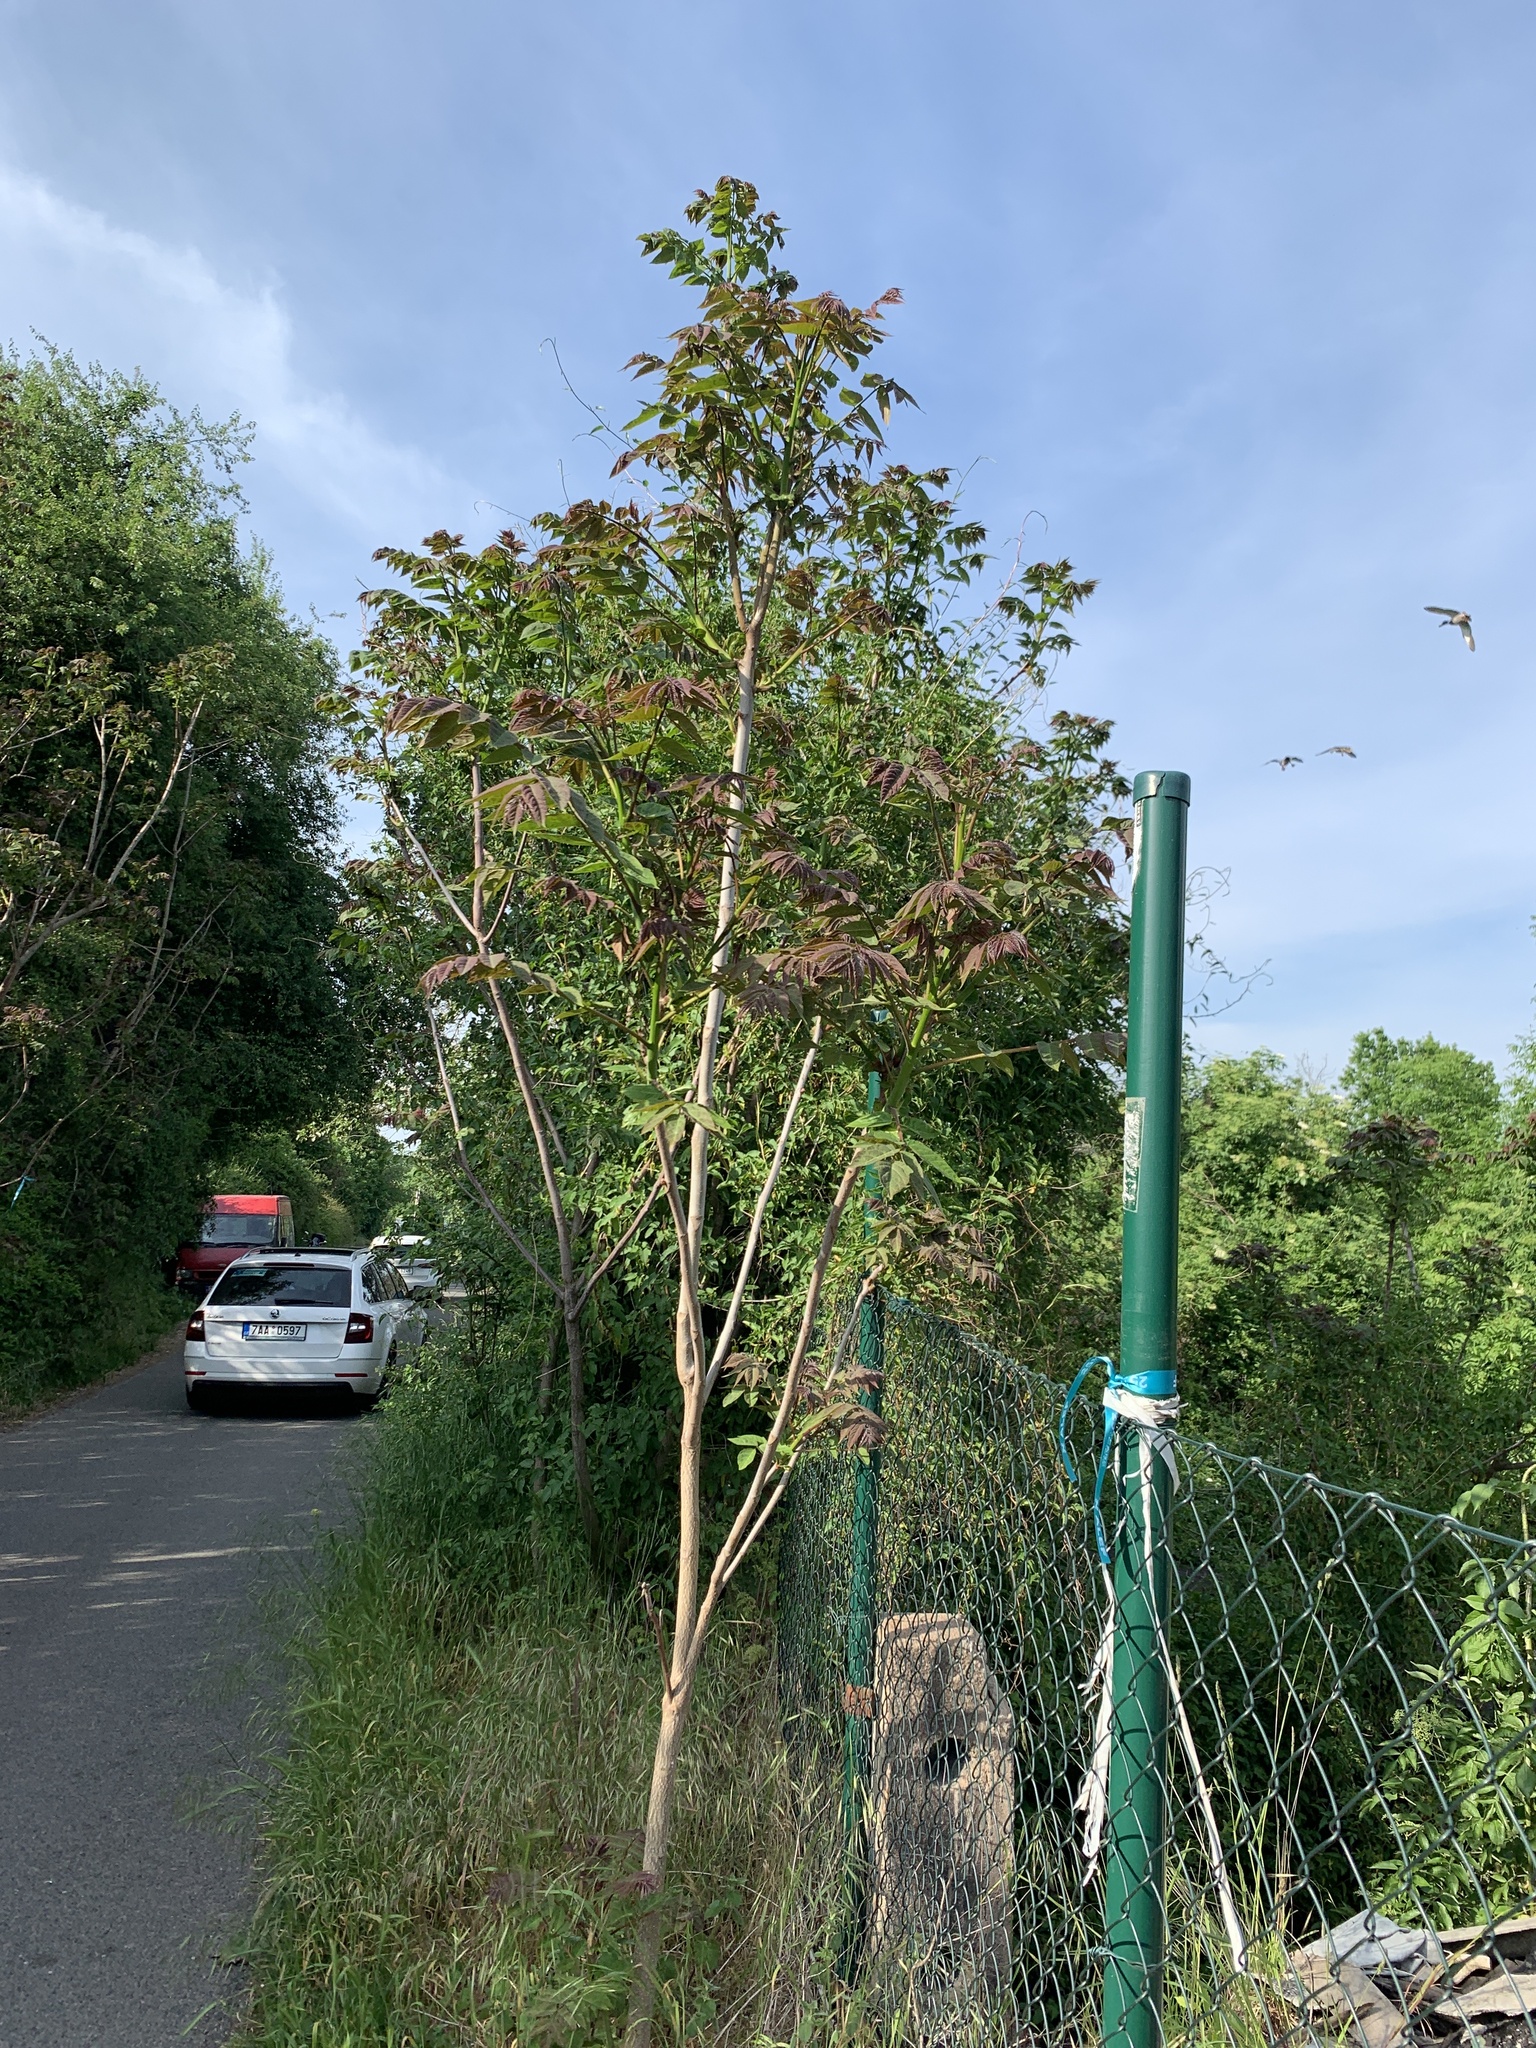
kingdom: Plantae
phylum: Tracheophyta
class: Magnoliopsida
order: Sapindales
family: Simaroubaceae
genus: Ailanthus
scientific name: Ailanthus altissima
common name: Tree-of-heaven
